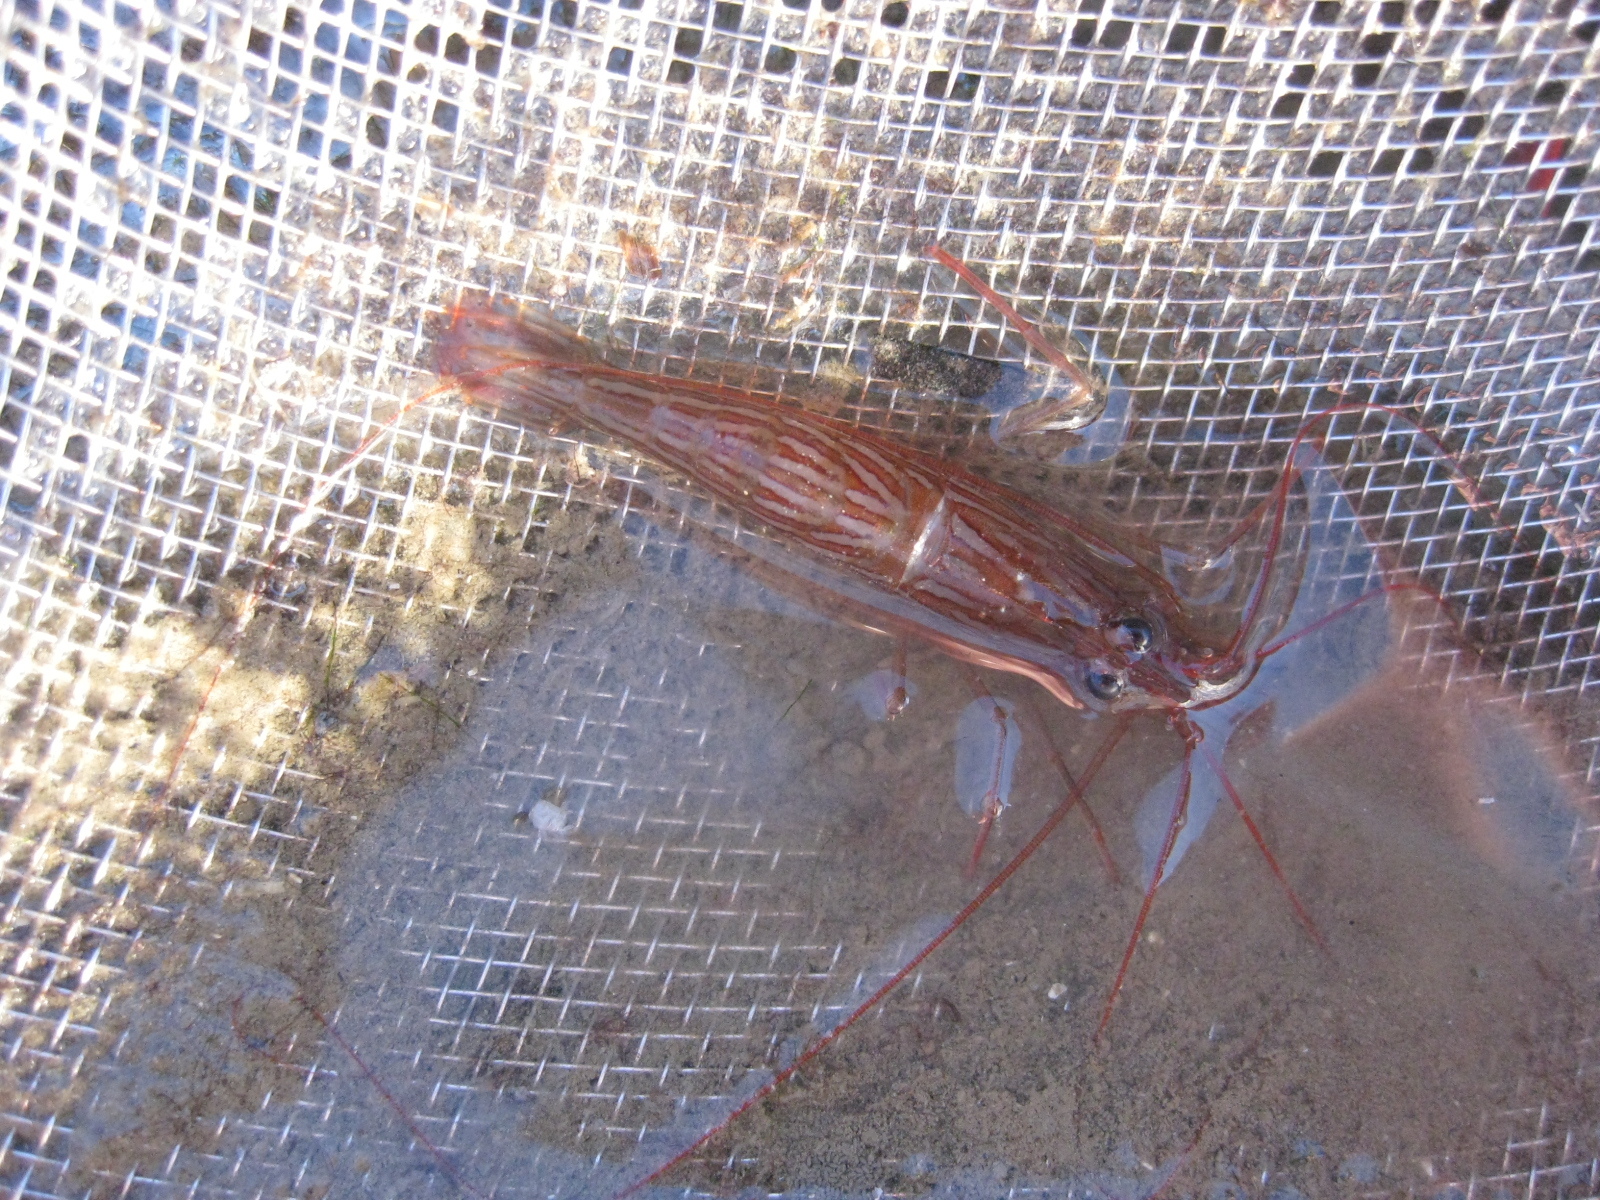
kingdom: Animalia
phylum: Arthropoda
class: Malacostraca
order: Decapoda
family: Lysmatidae
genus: Lysmata
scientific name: Lysmata californica
